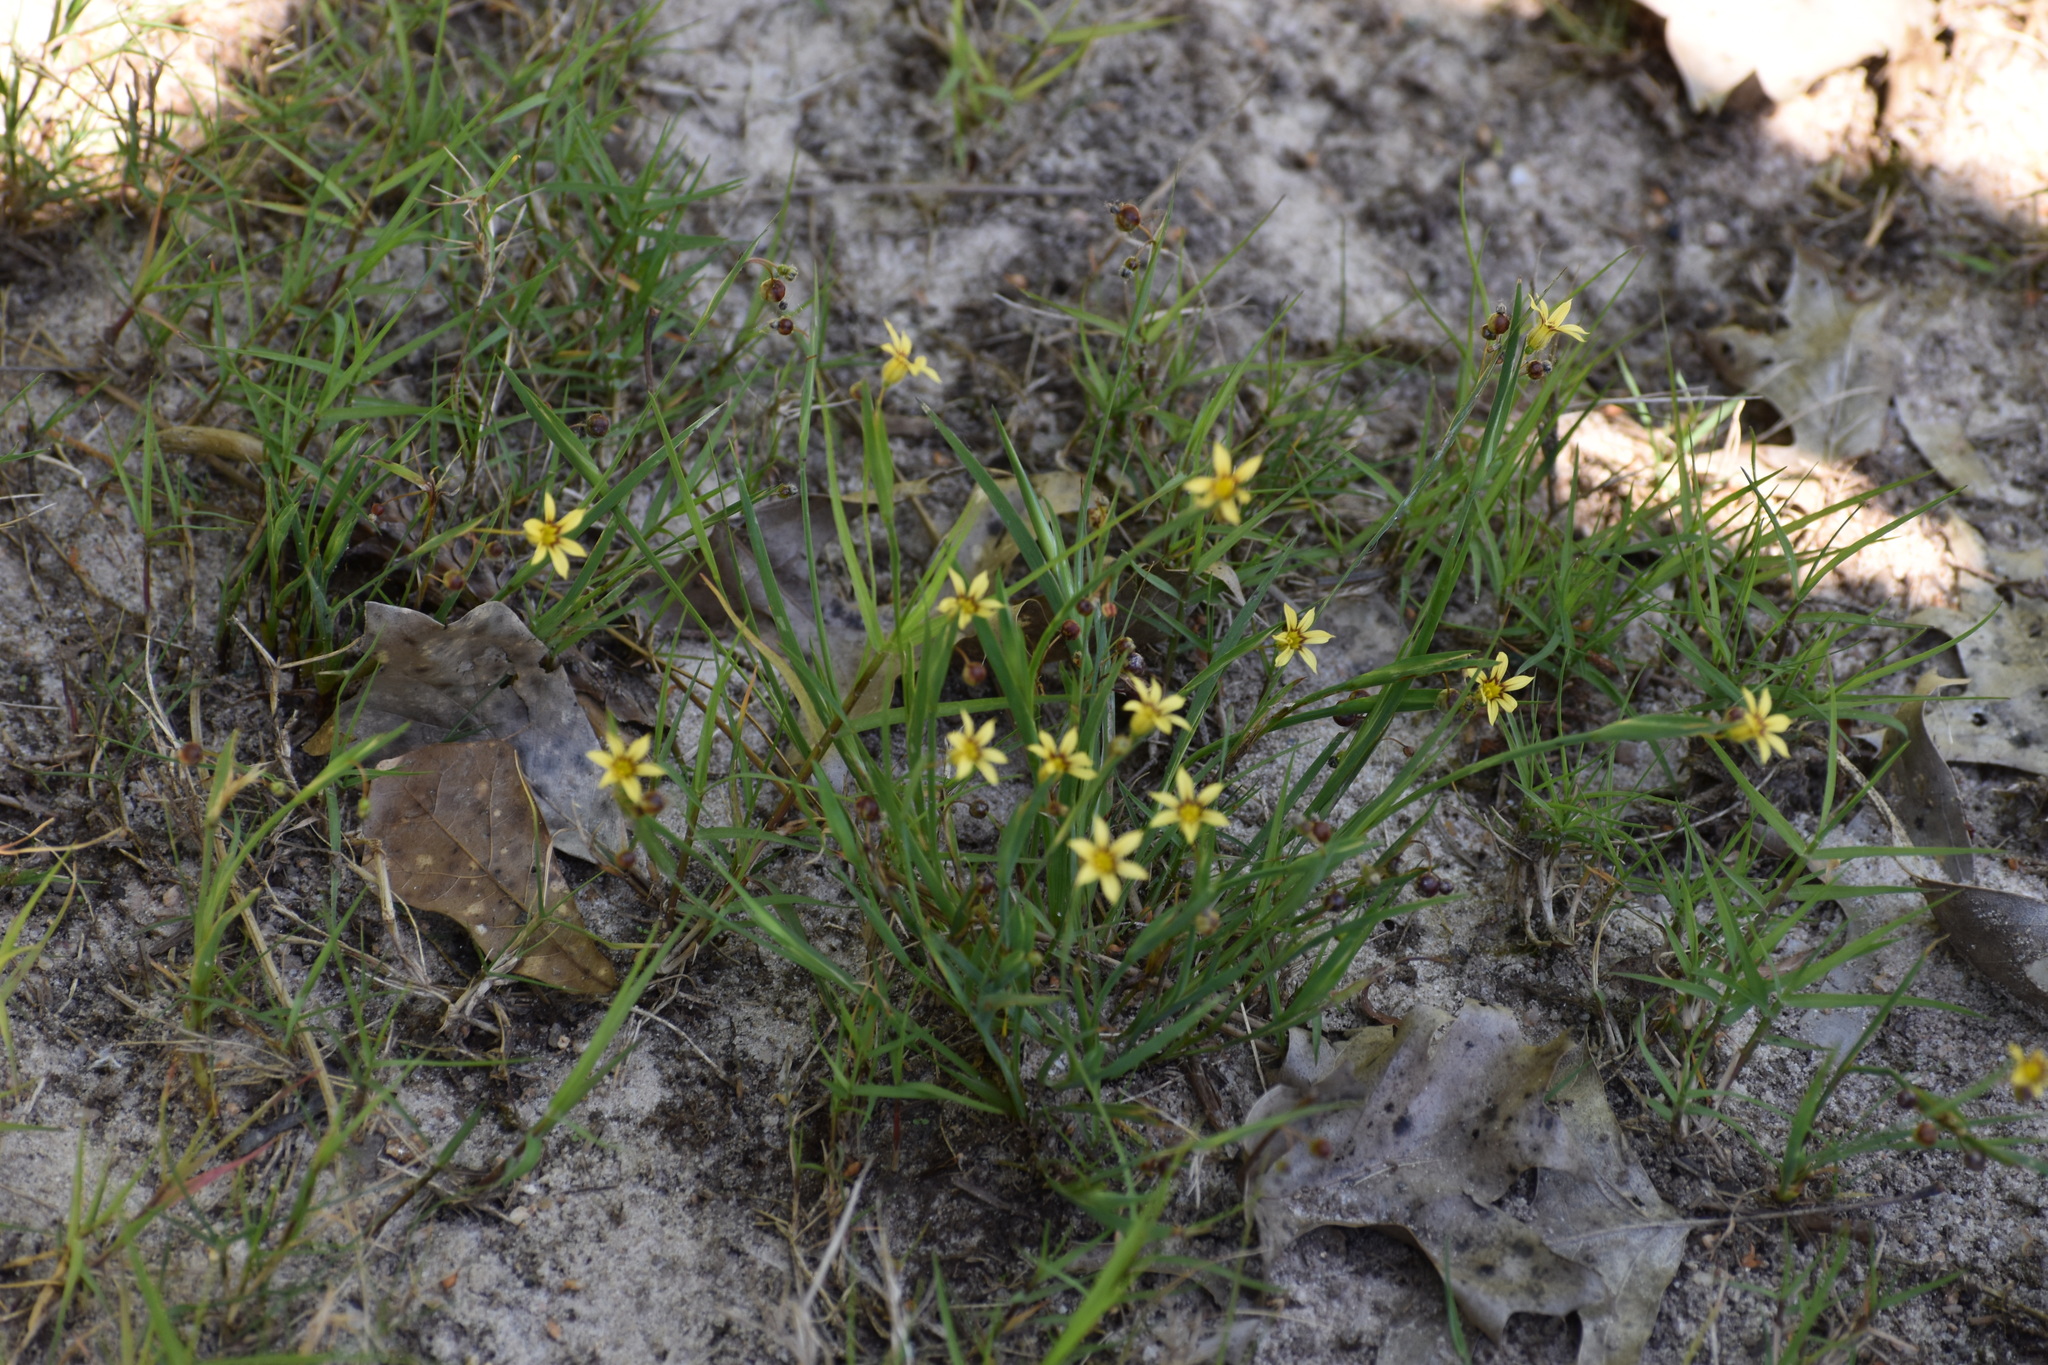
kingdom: Plantae
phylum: Tracheophyta
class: Liliopsida
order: Asparagales
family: Iridaceae
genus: Sisyrinchium
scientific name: Sisyrinchium micranthum
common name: Bermuda pigroot
